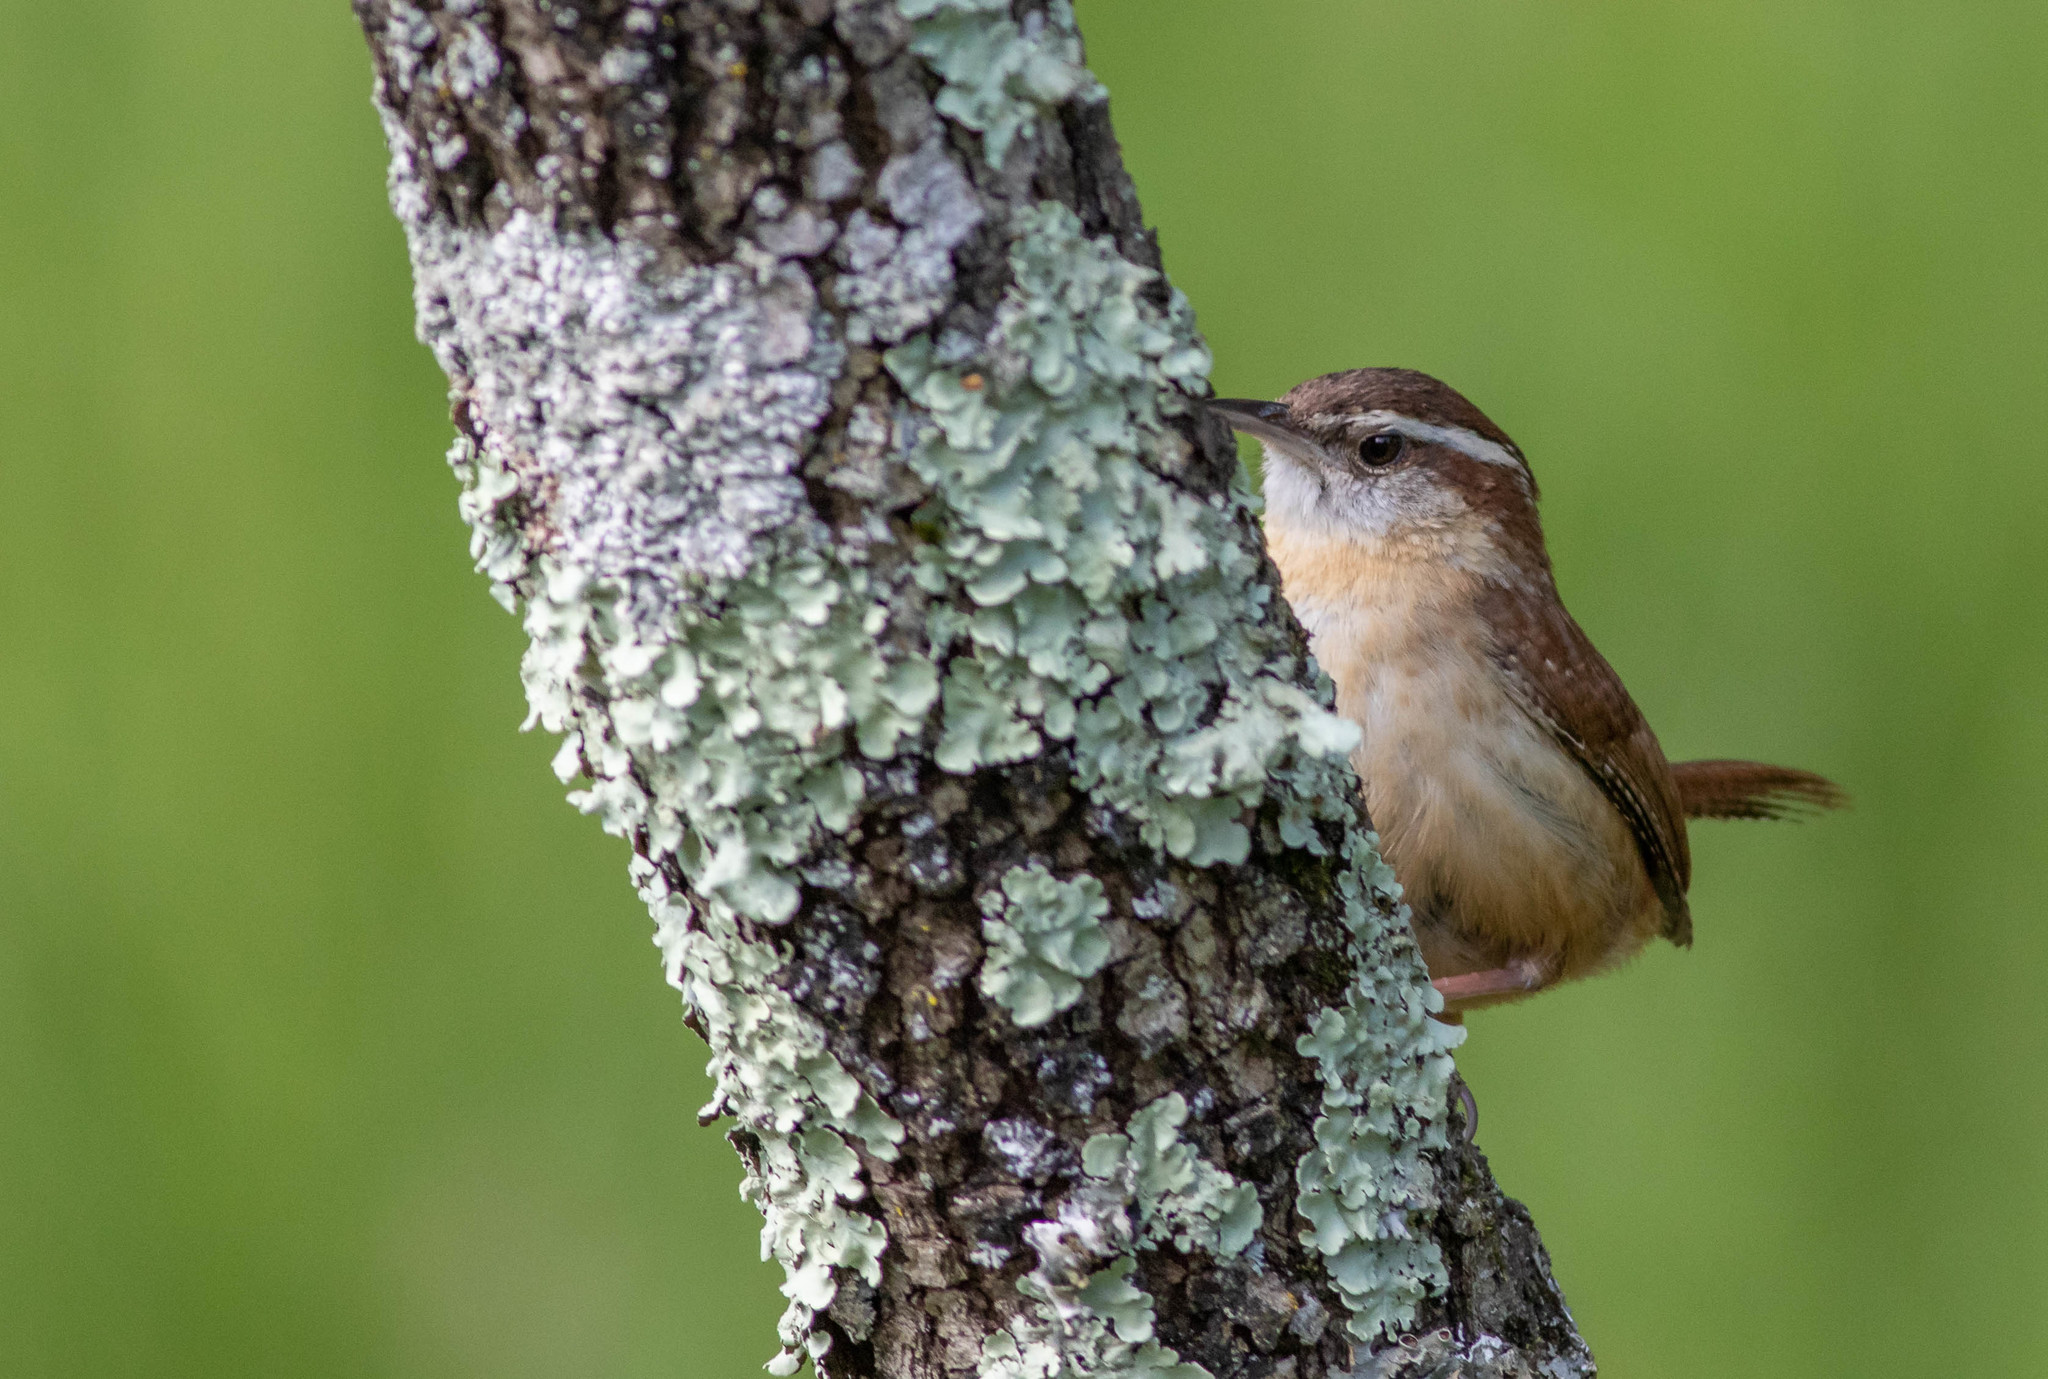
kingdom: Animalia
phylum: Chordata
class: Aves
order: Passeriformes
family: Troglodytidae
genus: Thryothorus
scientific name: Thryothorus ludovicianus
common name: Carolina wren
